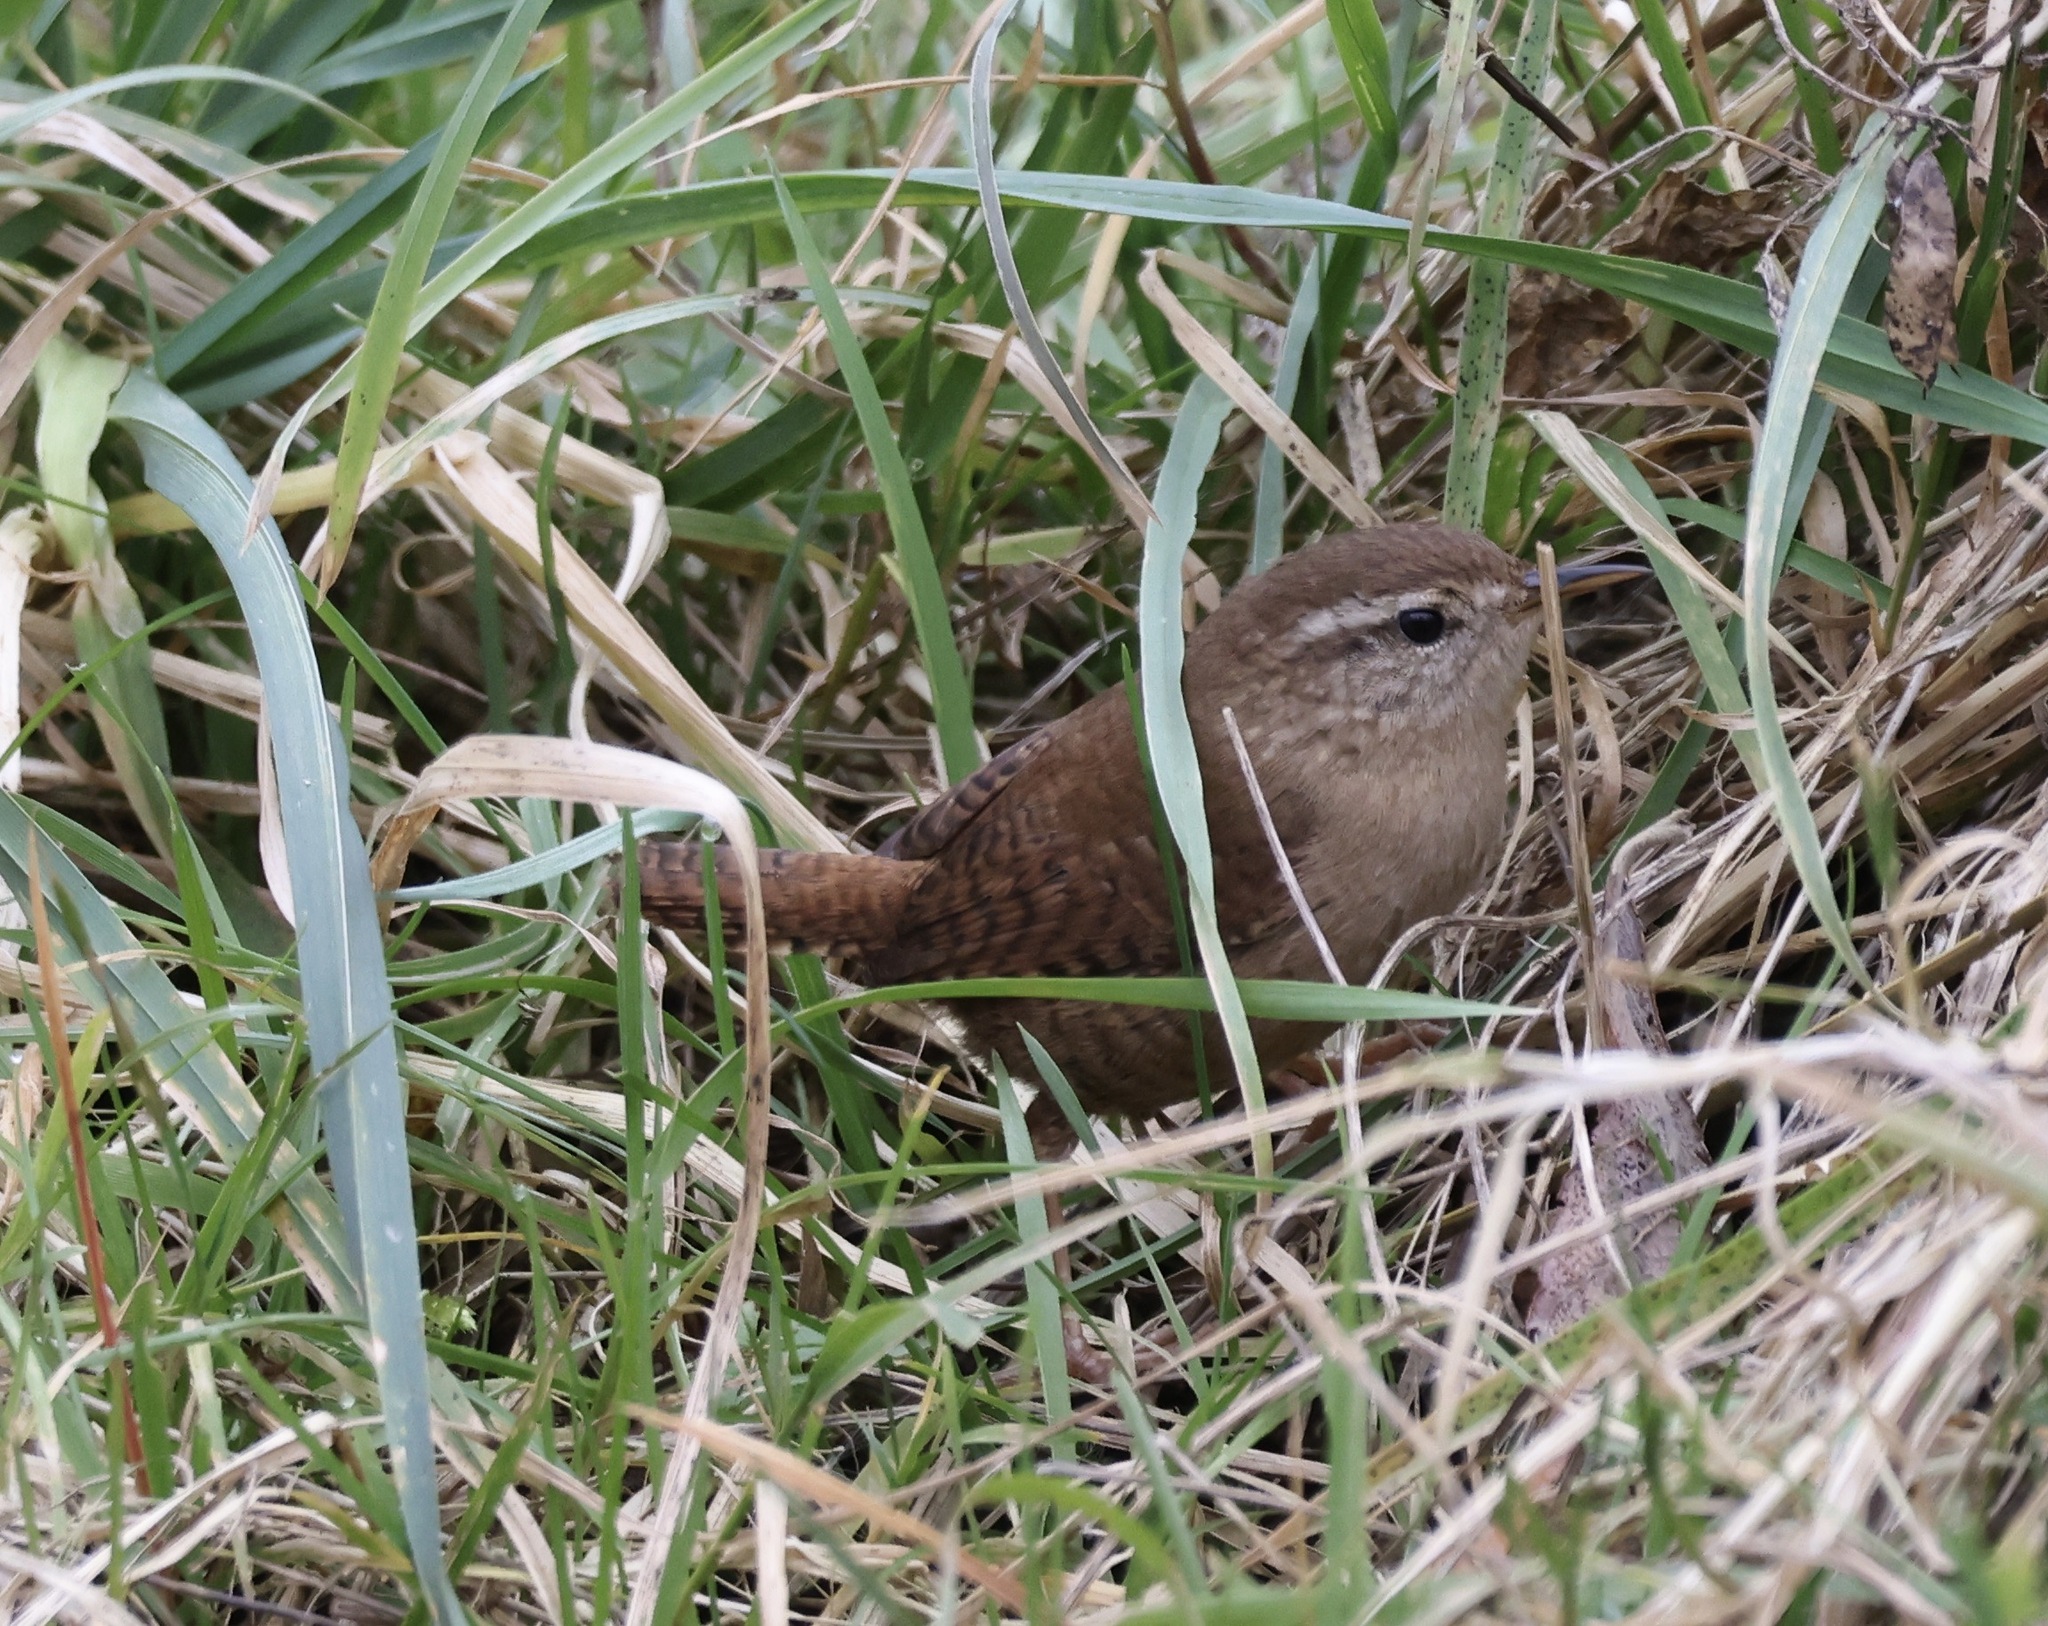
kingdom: Animalia
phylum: Chordata
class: Aves
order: Passeriformes
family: Troglodytidae
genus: Troglodytes
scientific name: Troglodytes troglodytes
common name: Eurasian wren
